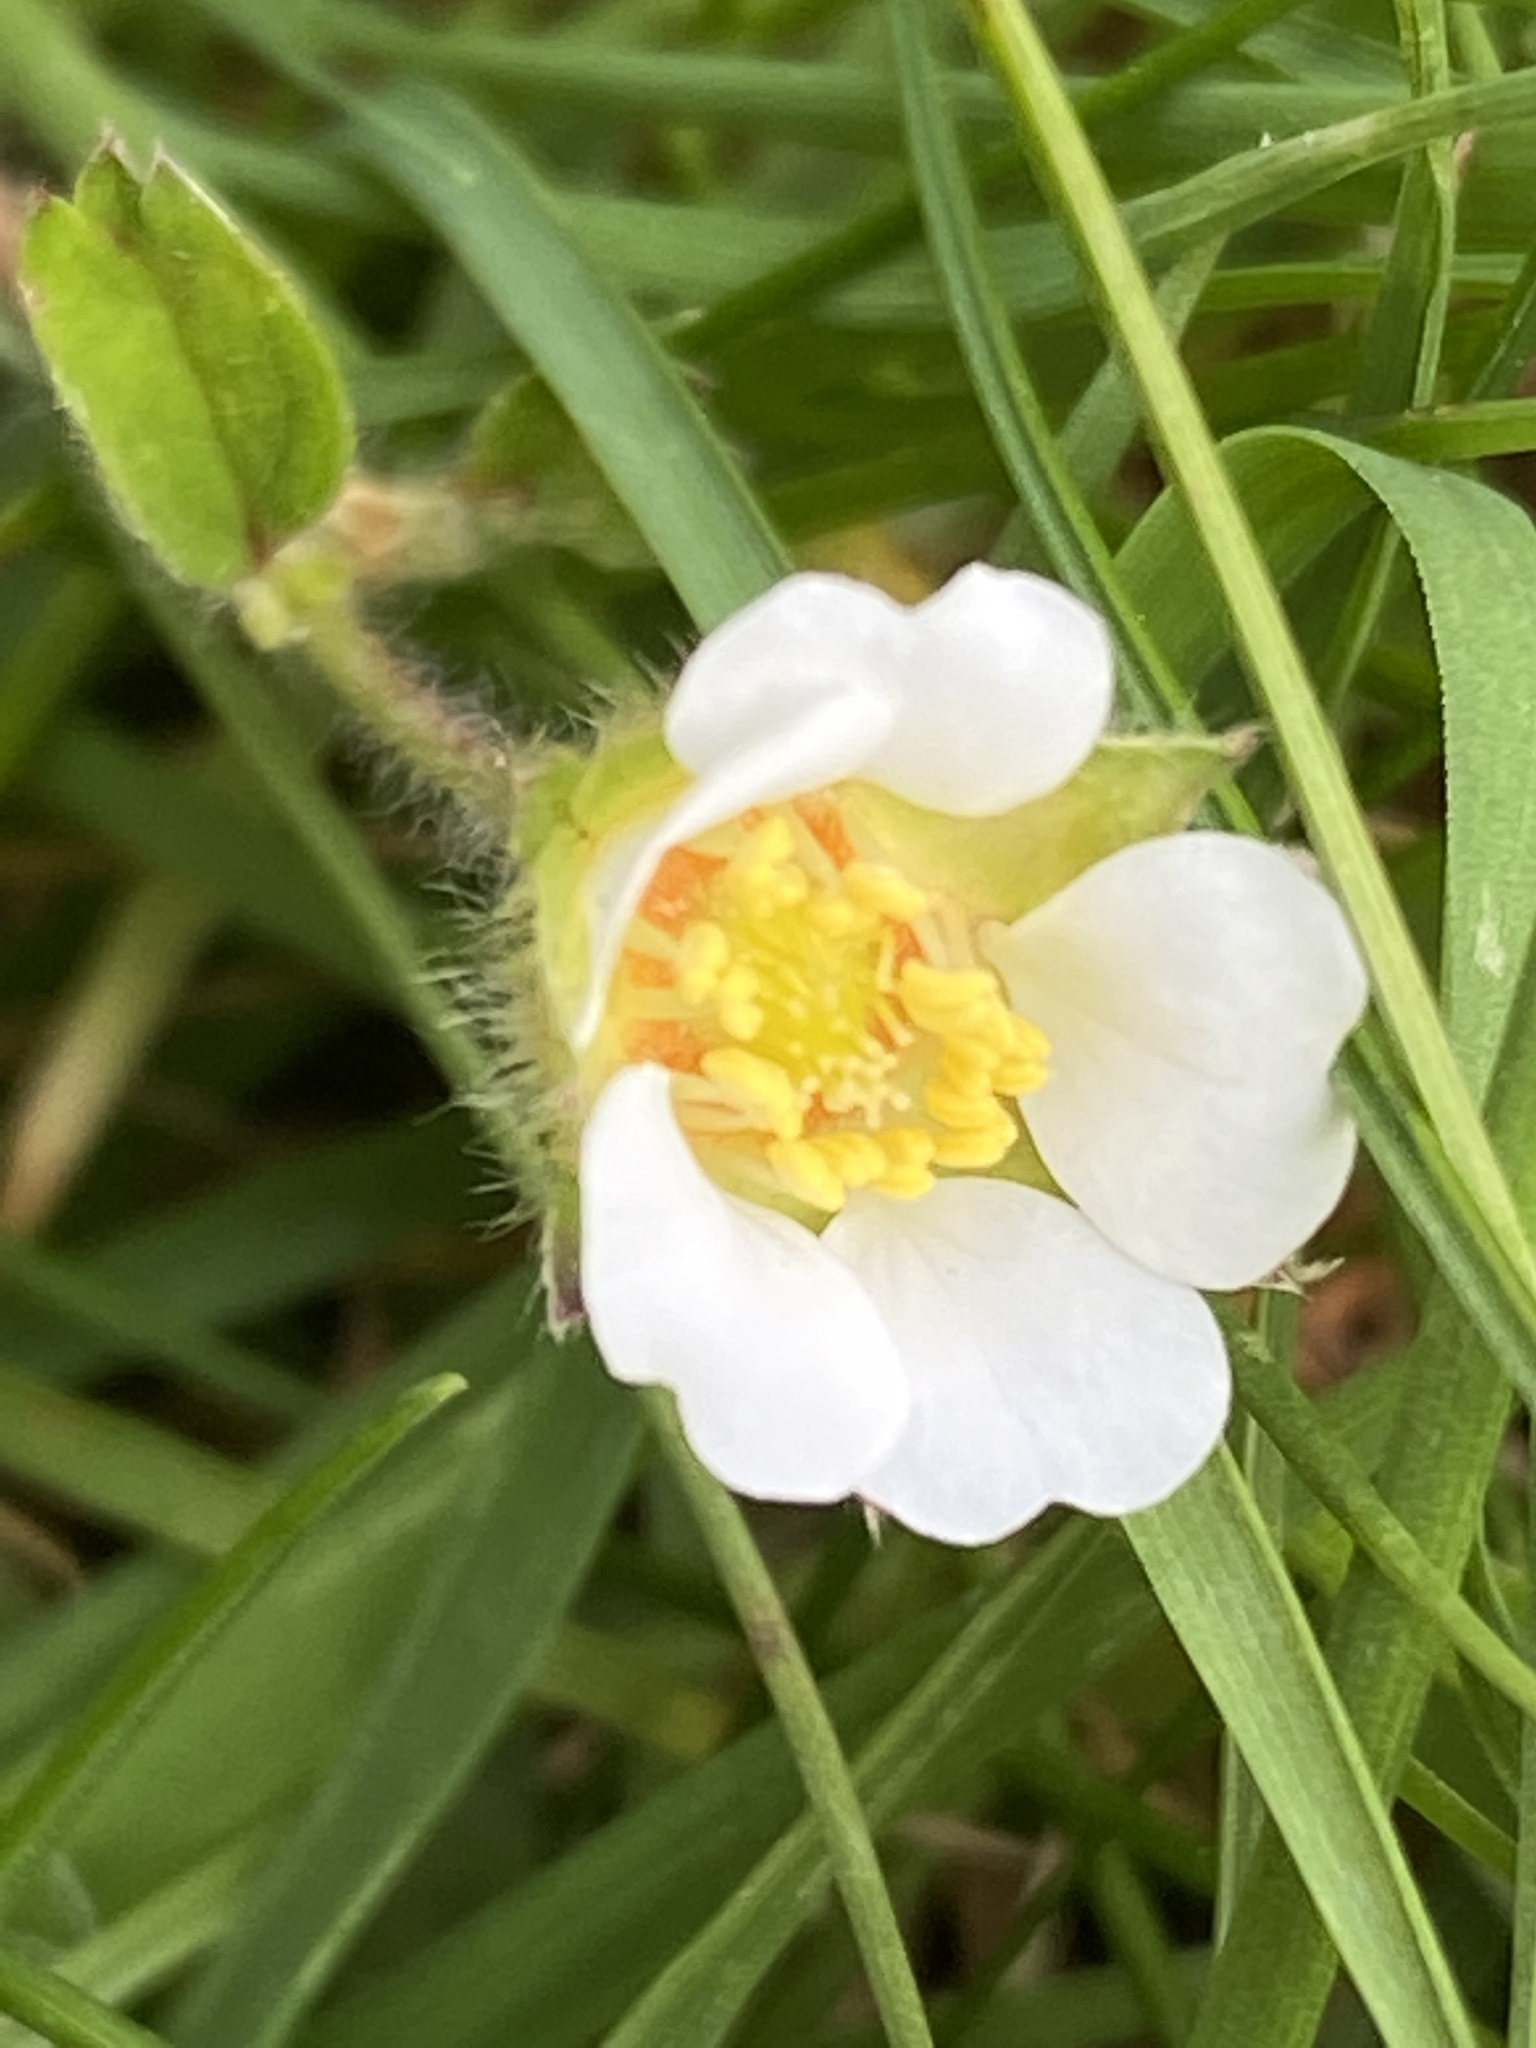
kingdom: Plantae
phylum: Tracheophyta
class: Magnoliopsida
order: Rosales
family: Rosaceae
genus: Potentilla
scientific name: Potentilla sterilis
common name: Barren strawberry
